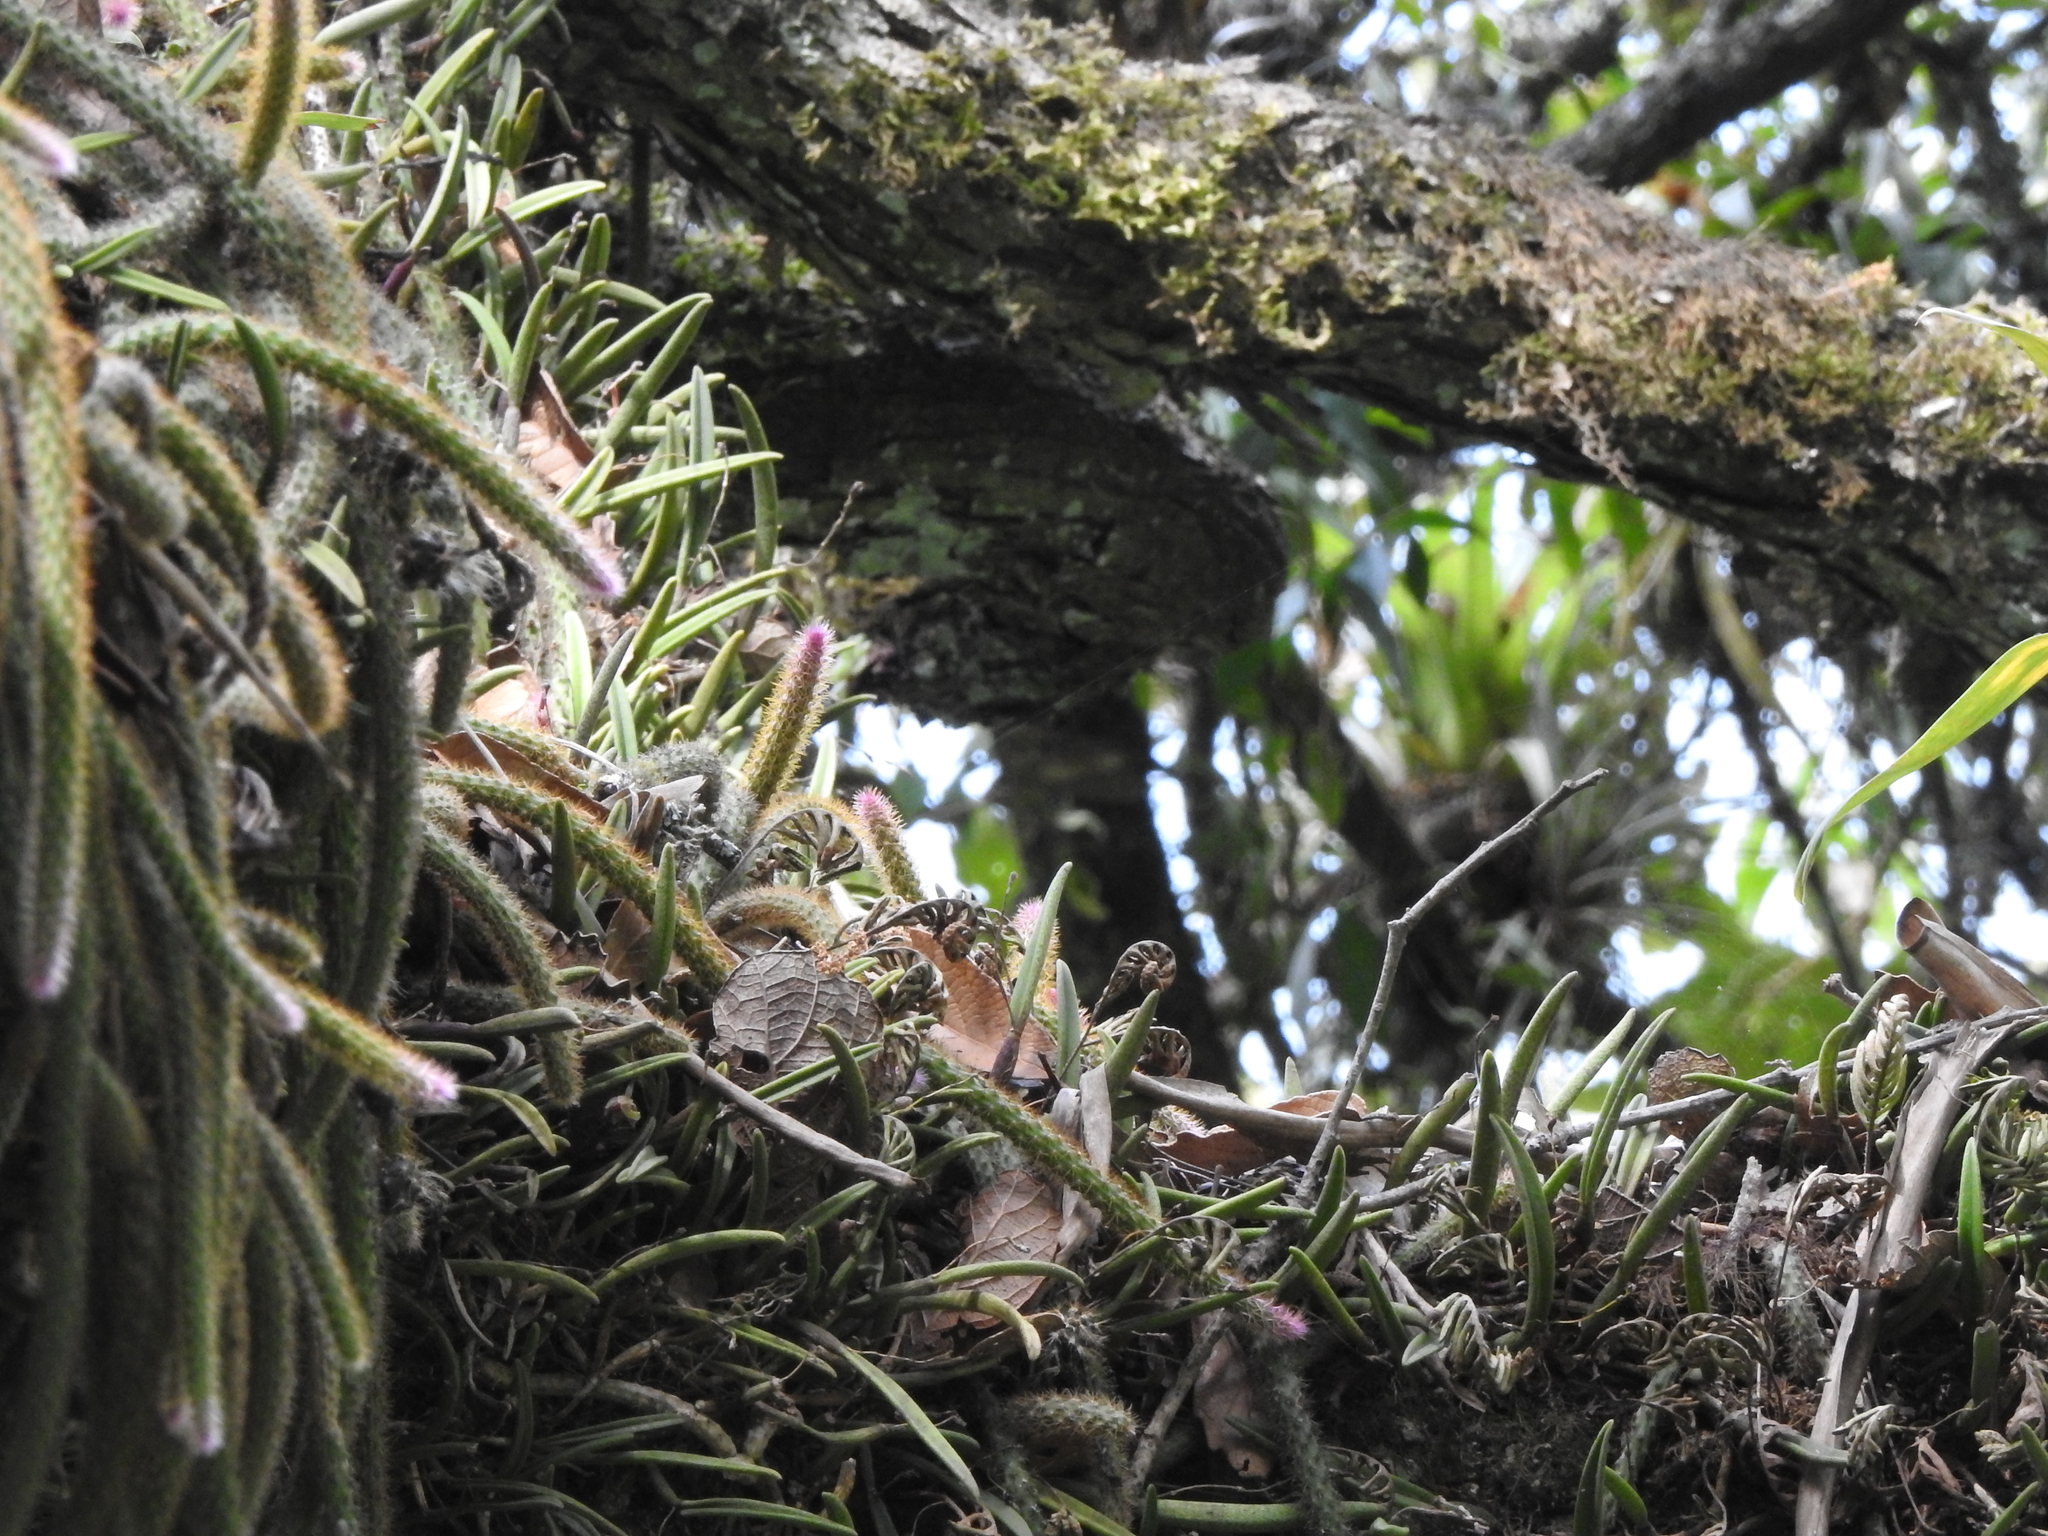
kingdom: Plantae
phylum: Tracheophyta
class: Magnoliopsida
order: Caryophyllales
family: Cactaceae
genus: Aporocactus
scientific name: Aporocactus flagelliformis
